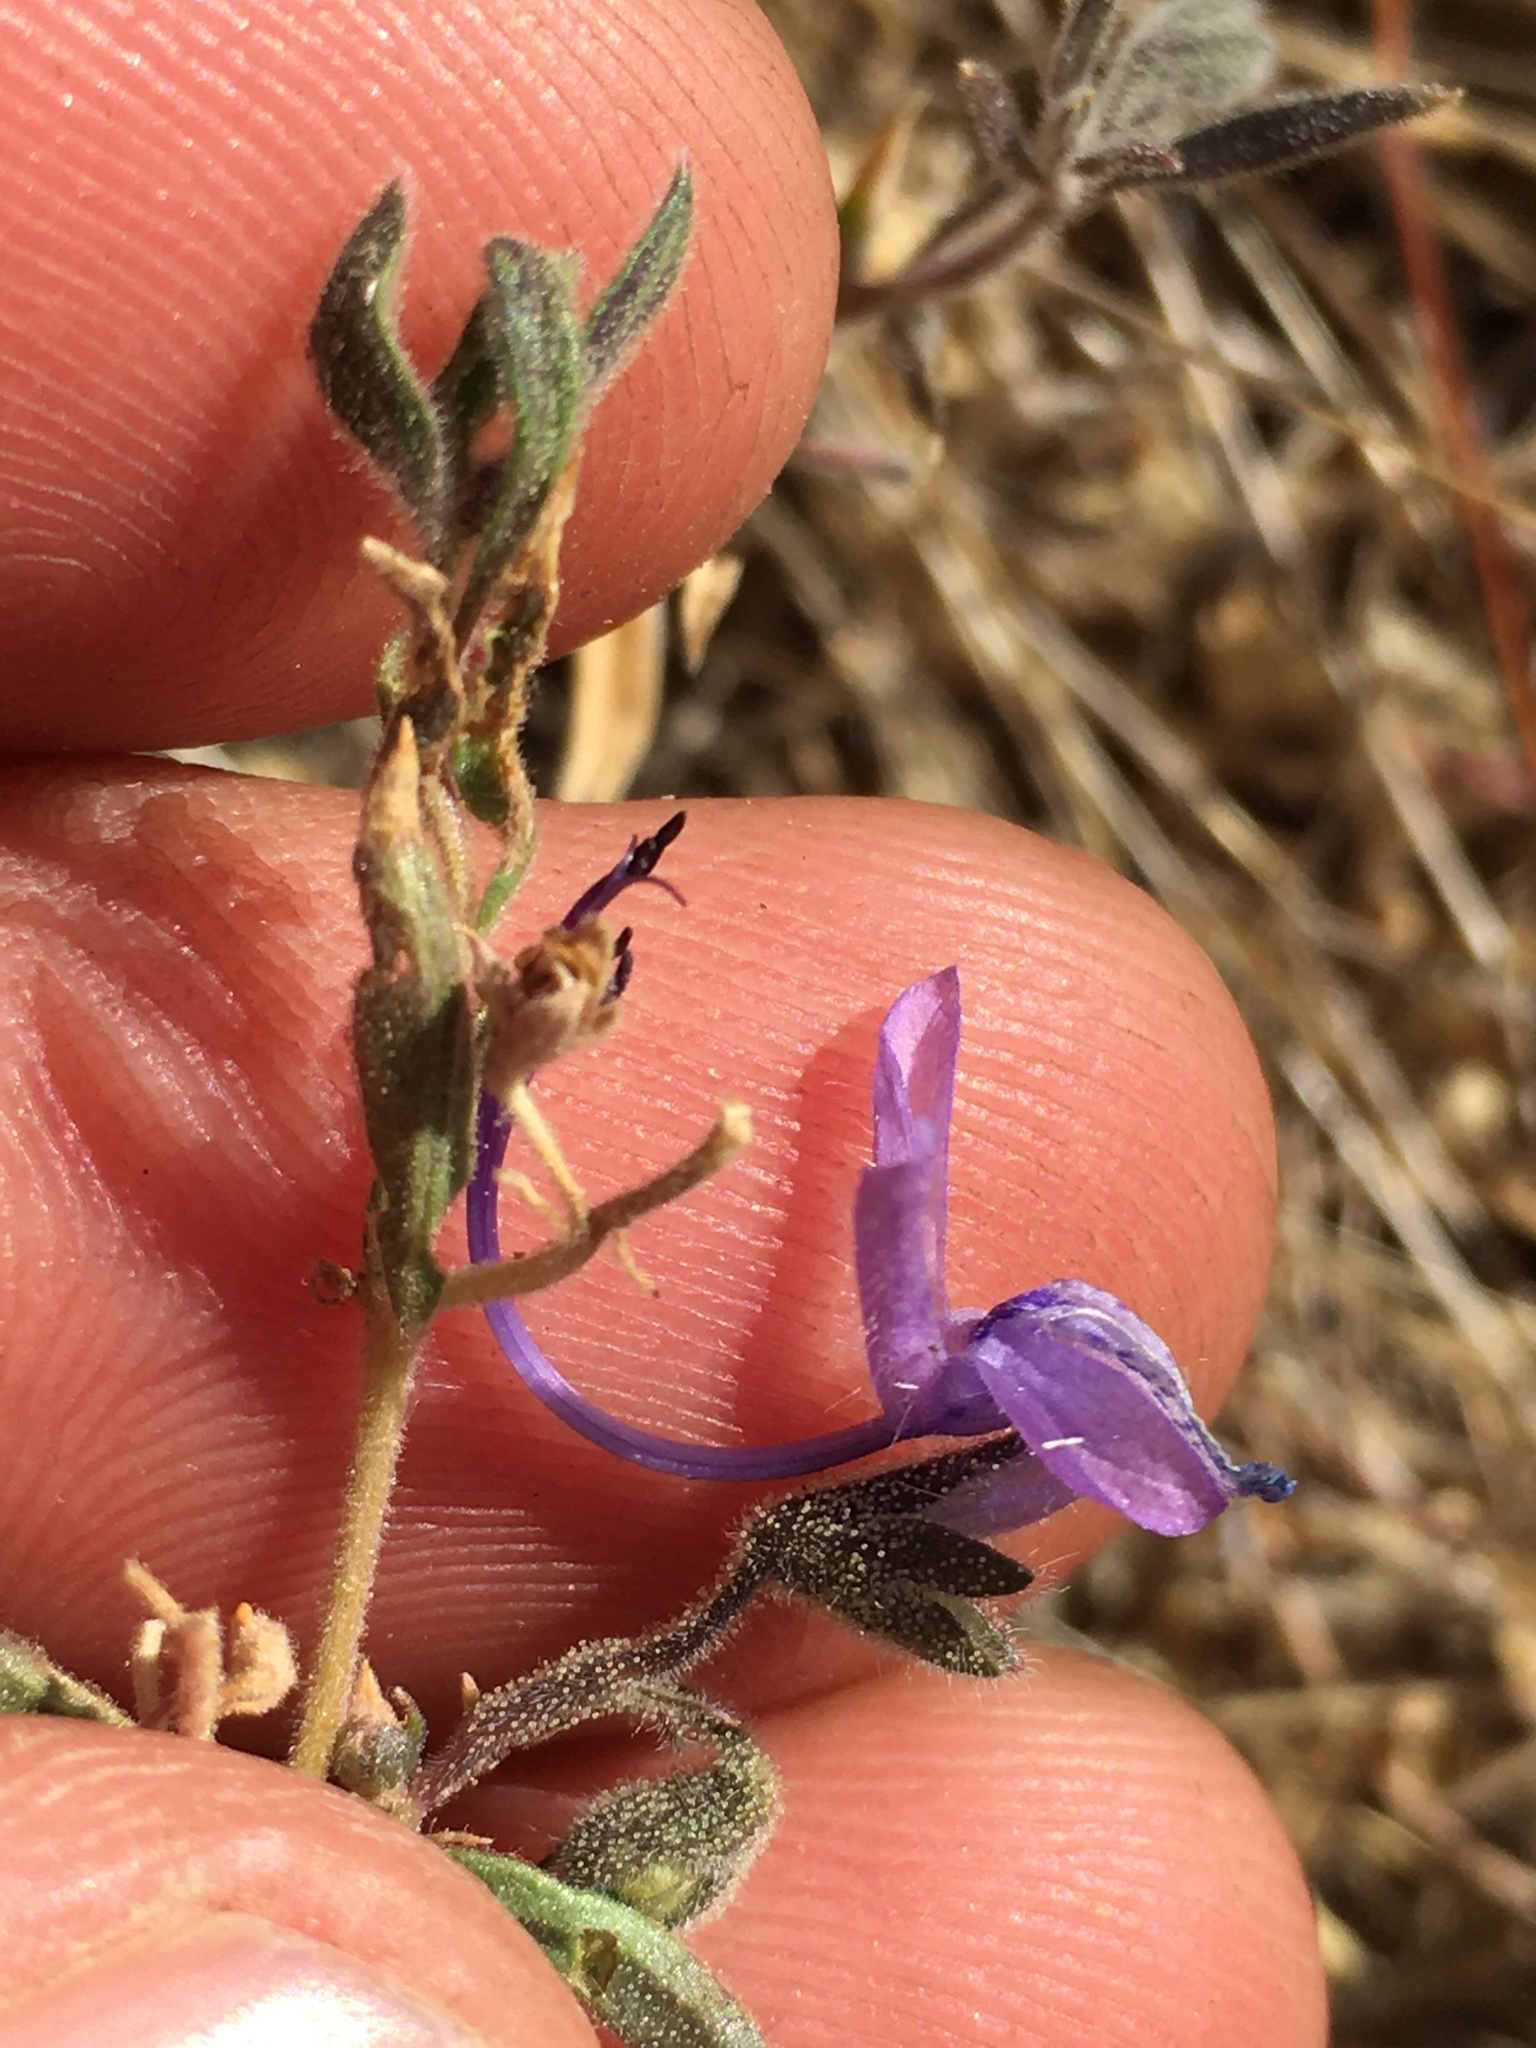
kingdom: Plantae
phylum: Tracheophyta
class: Magnoliopsida
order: Lamiales
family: Lamiaceae
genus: Trichostema
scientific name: Trichostema lanceolatum
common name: Vinegar-weed
